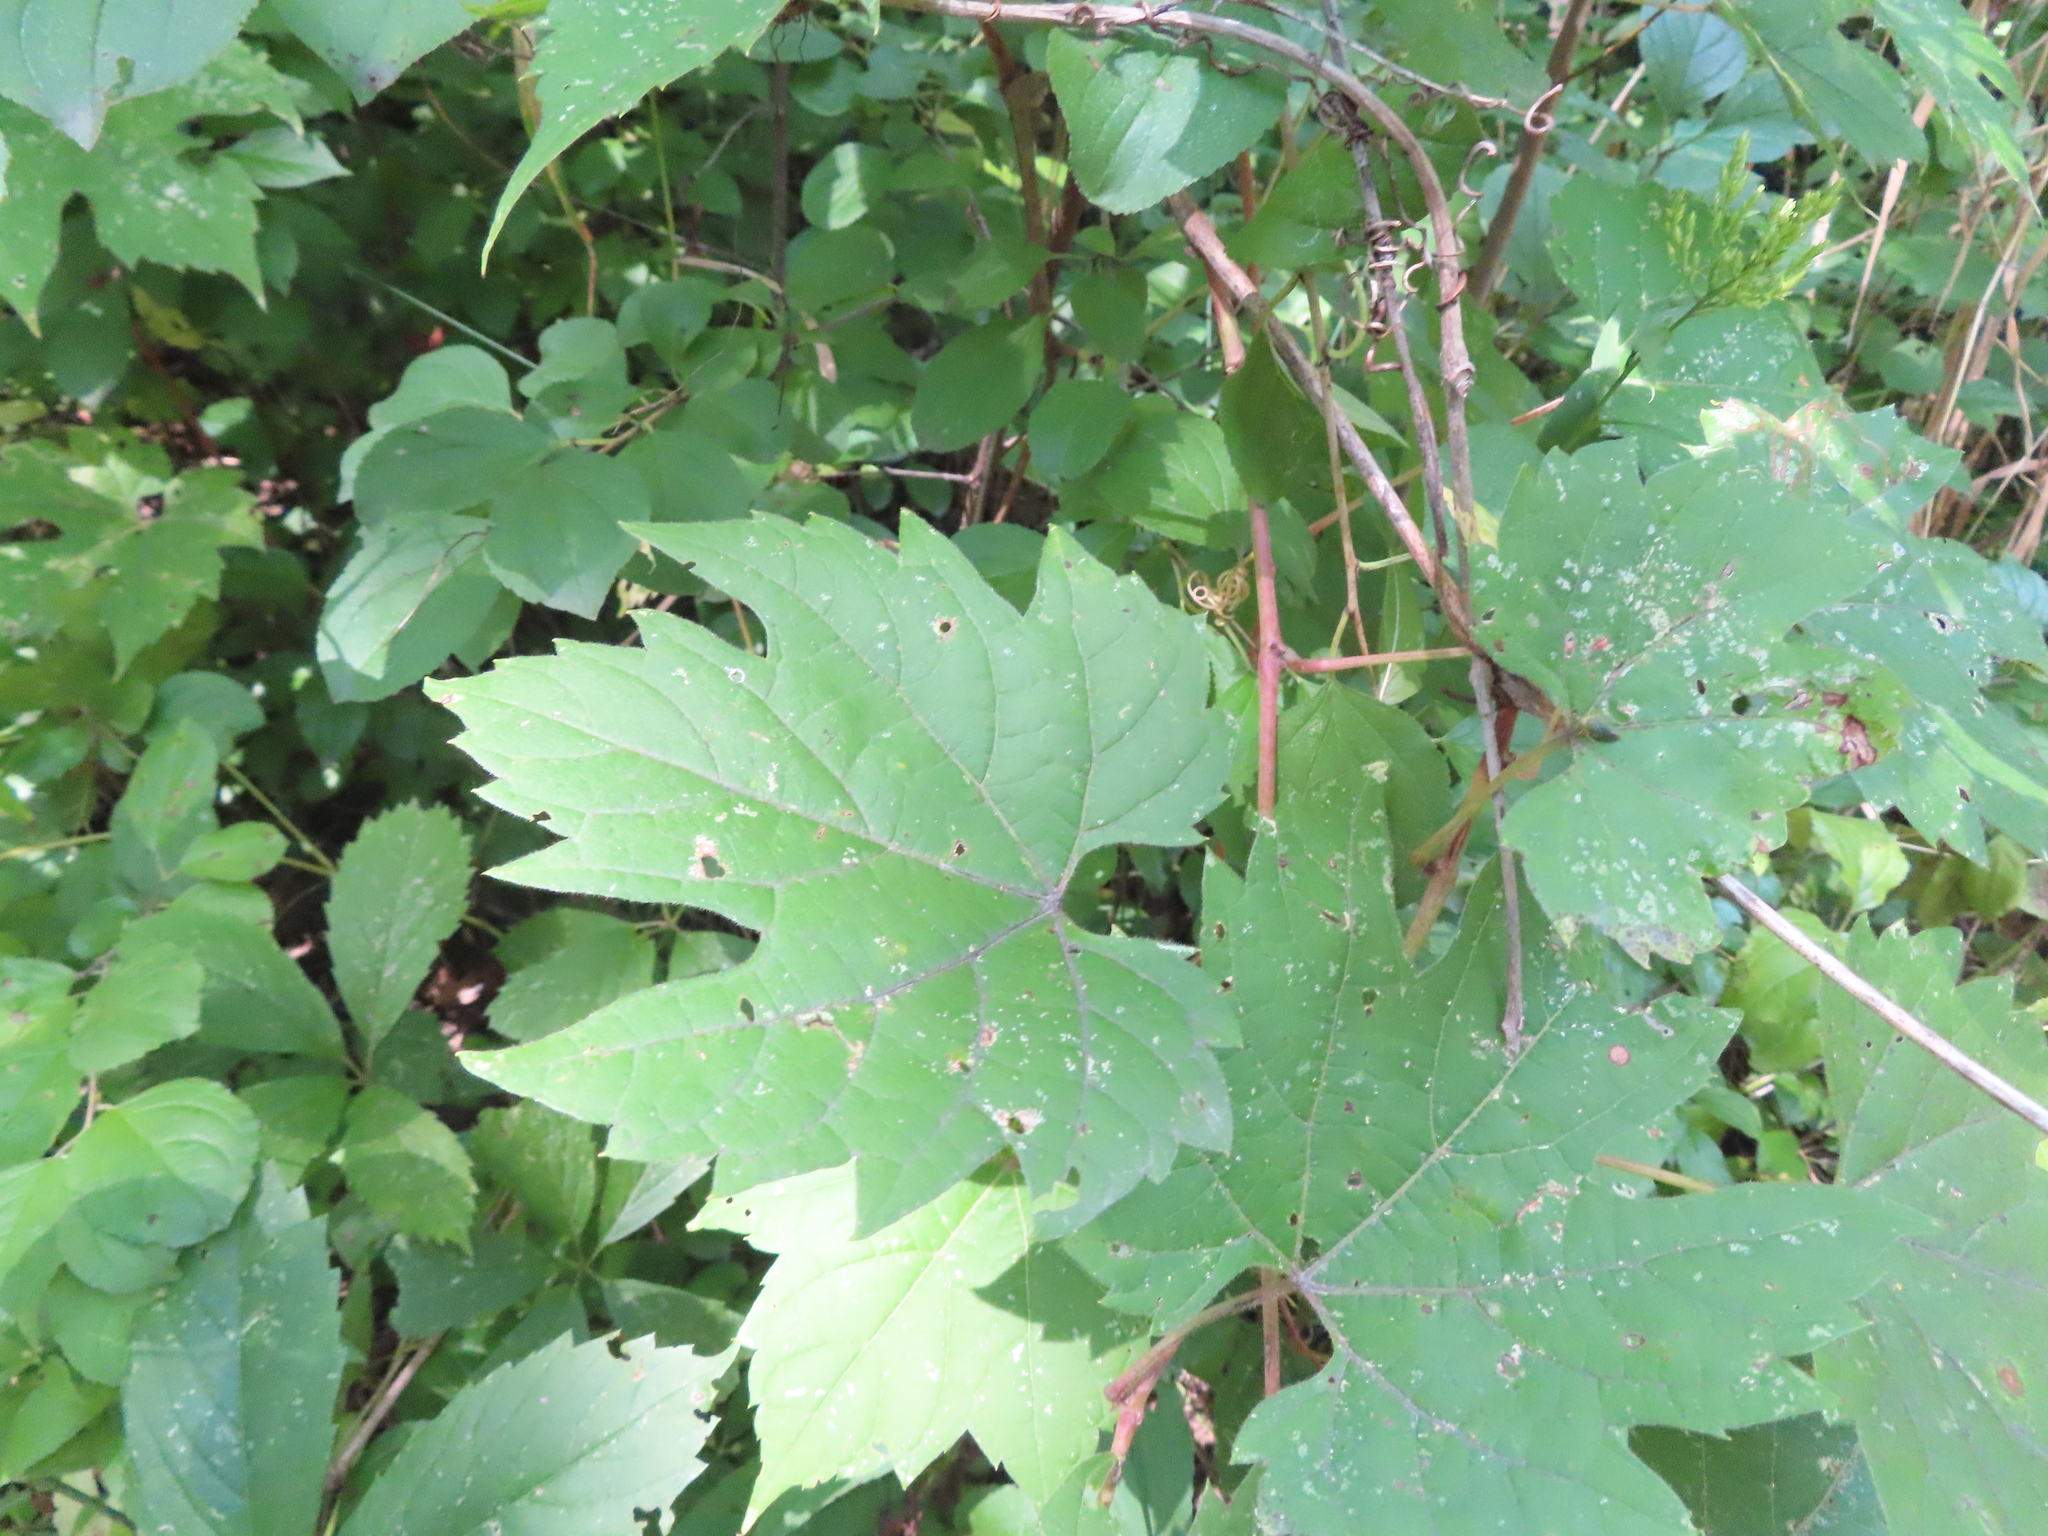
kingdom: Plantae
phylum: Tracheophyta
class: Magnoliopsida
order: Vitales
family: Vitaceae
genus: Vitis
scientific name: Vitis riparia
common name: Frost grape
